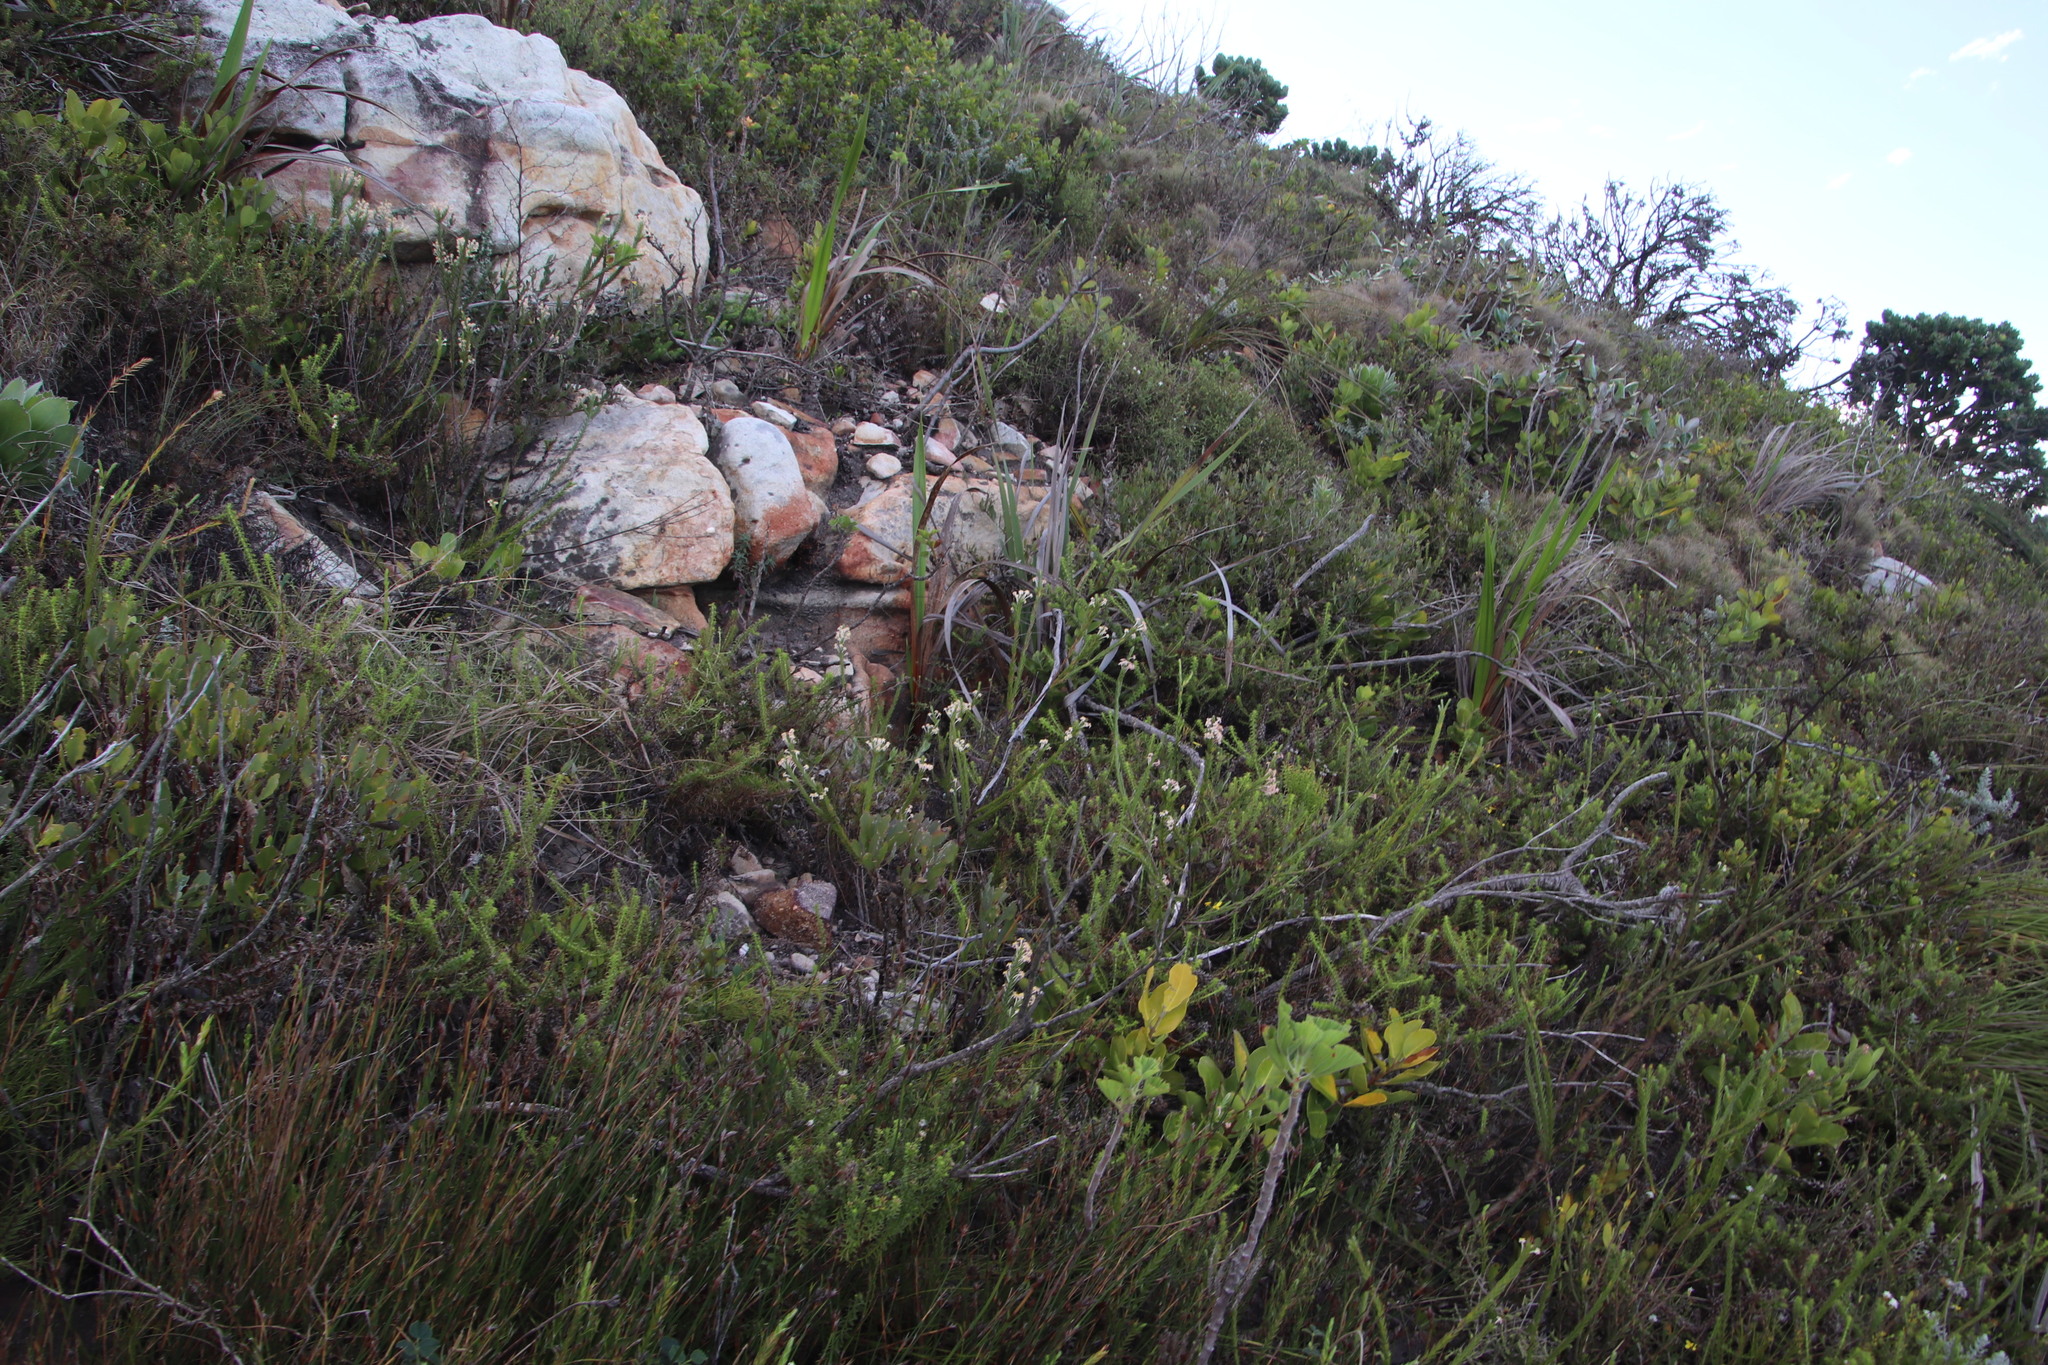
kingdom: Plantae
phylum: Tracheophyta
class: Magnoliopsida
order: Rosales
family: Rhamnaceae
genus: Trichocephalus
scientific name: Trichocephalus stipularis
